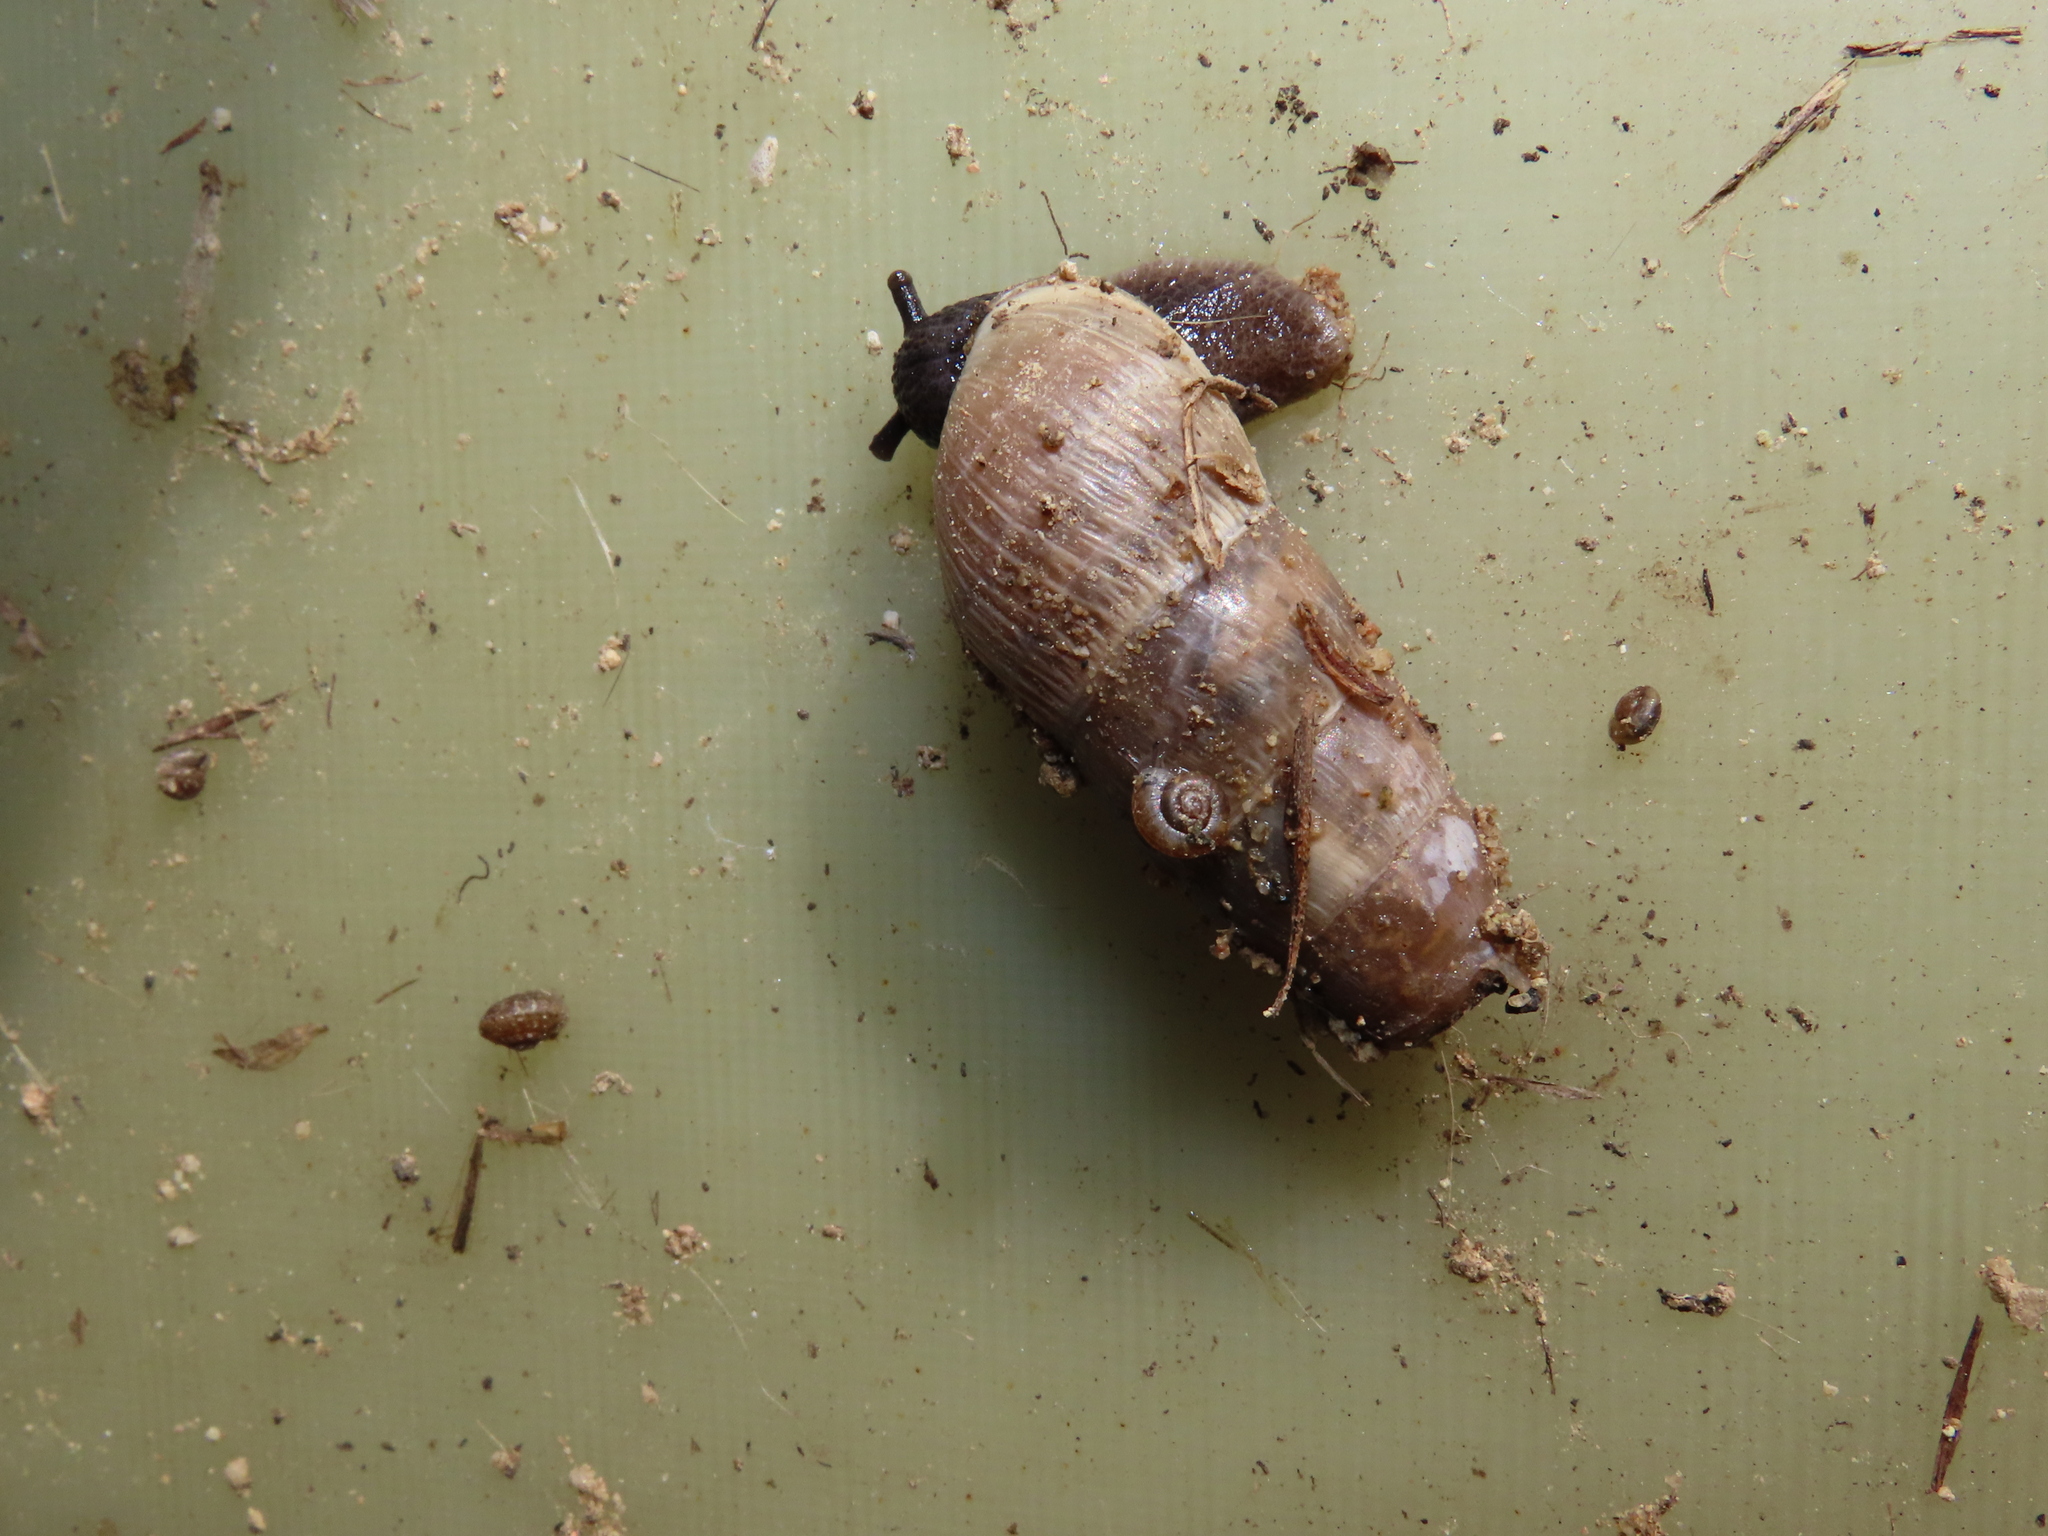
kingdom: Animalia
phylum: Mollusca
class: Gastropoda
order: Stylommatophora
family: Achatinidae
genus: Rumina
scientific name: Rumina decollata
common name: Decollate snail
